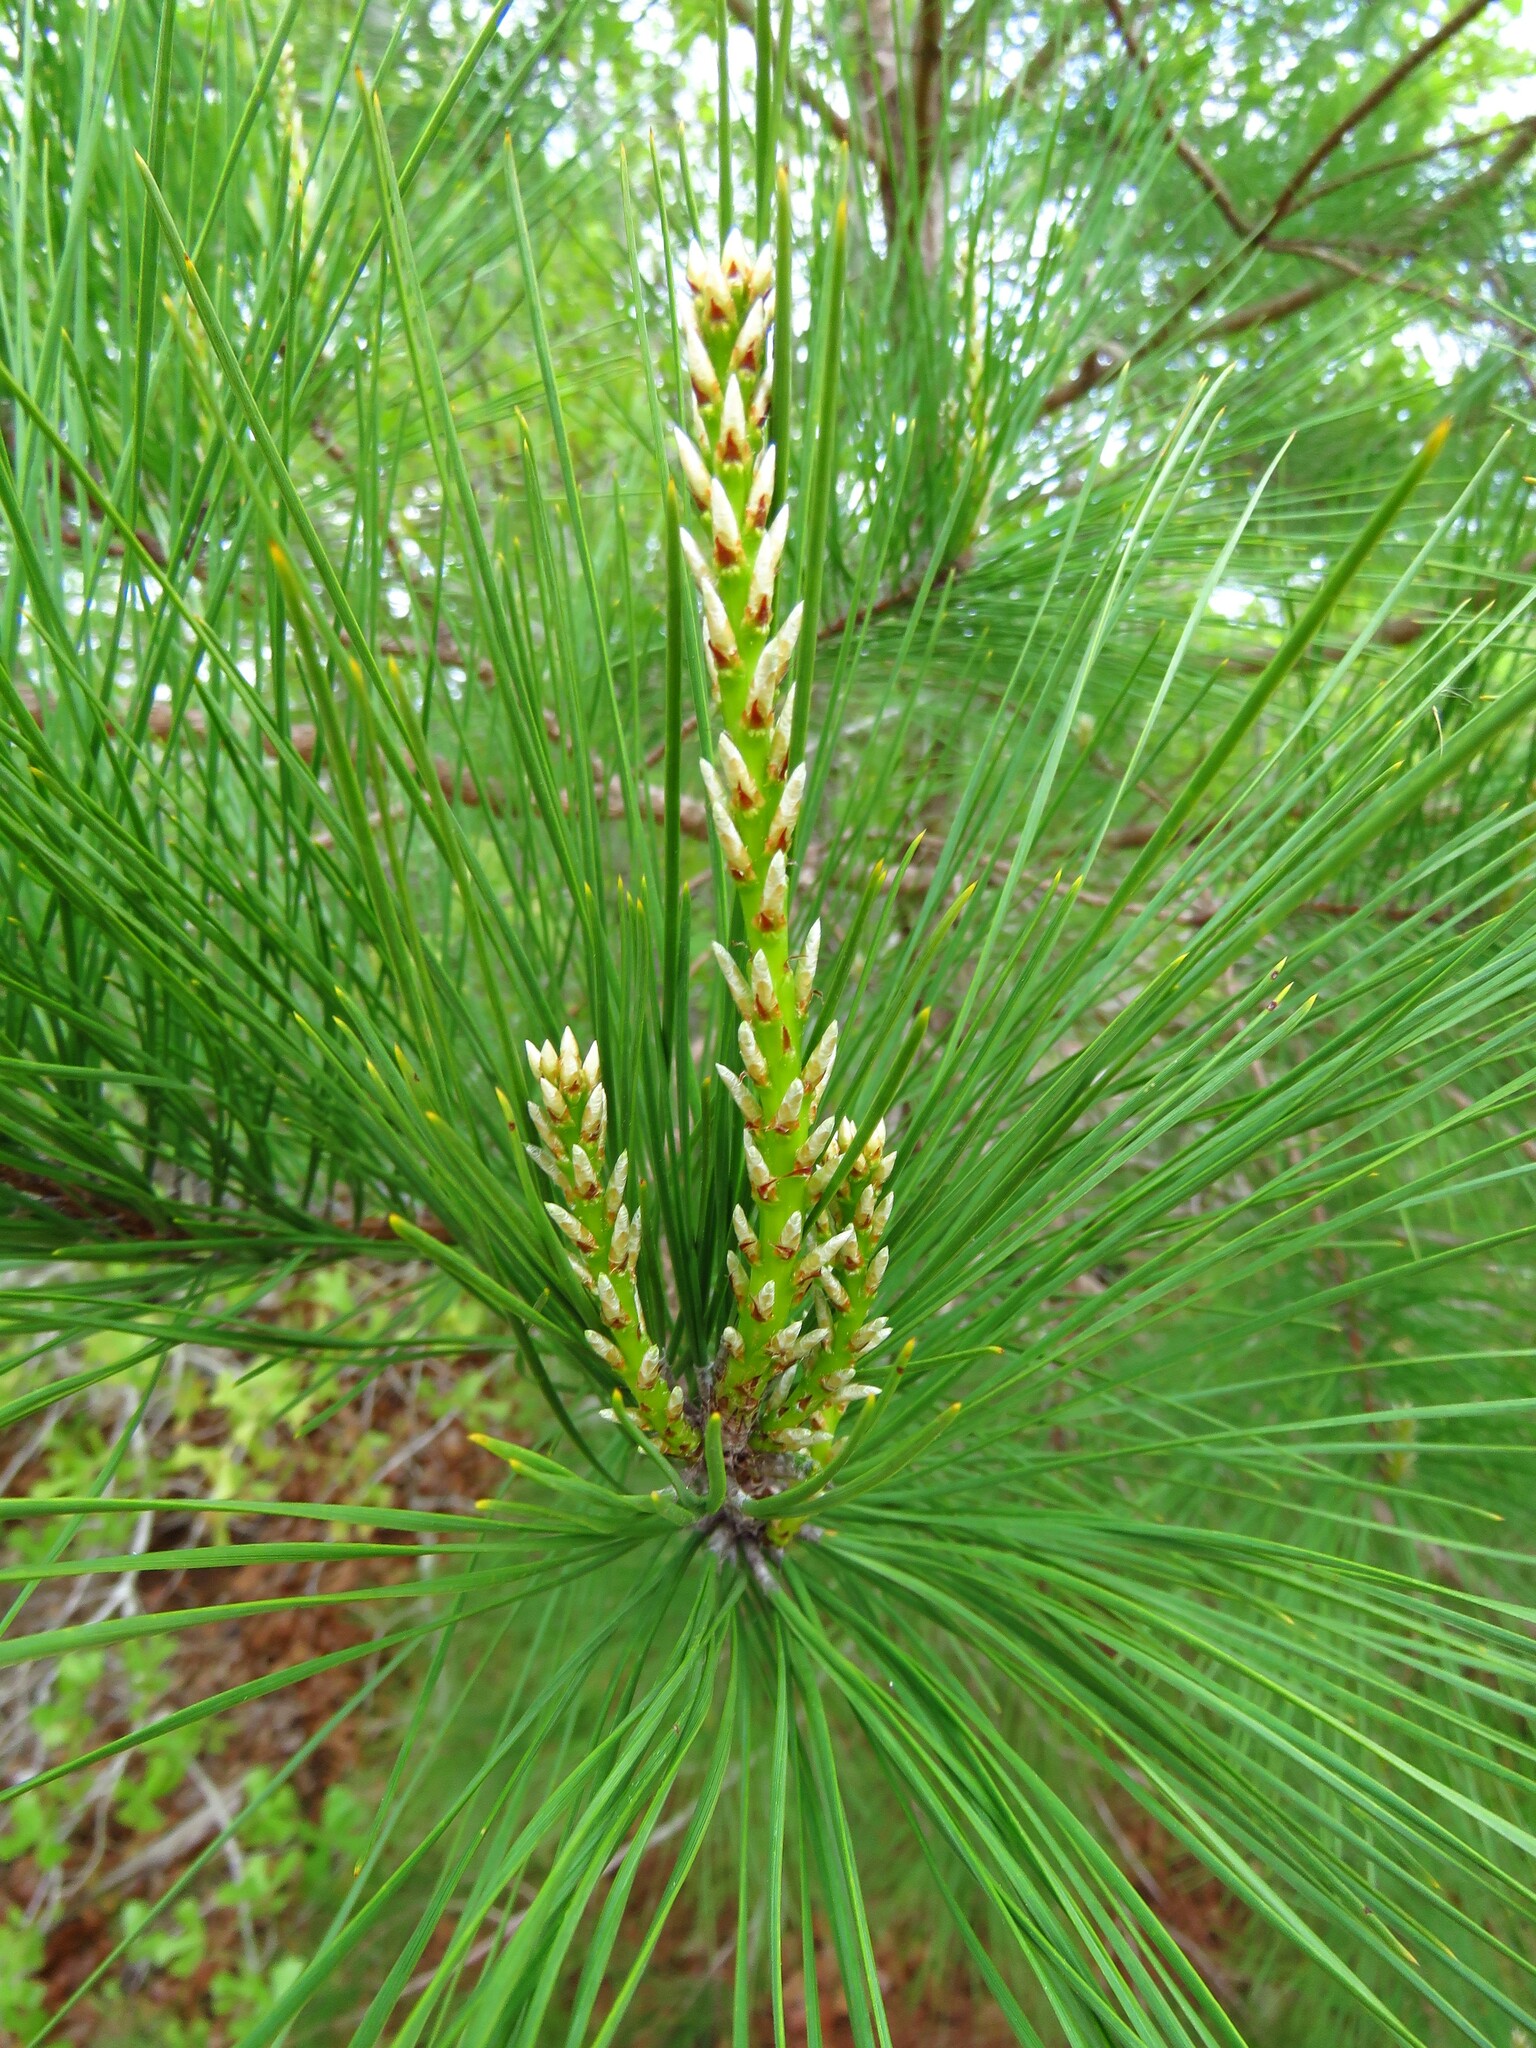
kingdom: Plantae
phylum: Tracheophyta
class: Pinopsida
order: Pinales
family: Pinaceae
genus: Pinus
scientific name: Pinus taeda
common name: Loblolly pine
